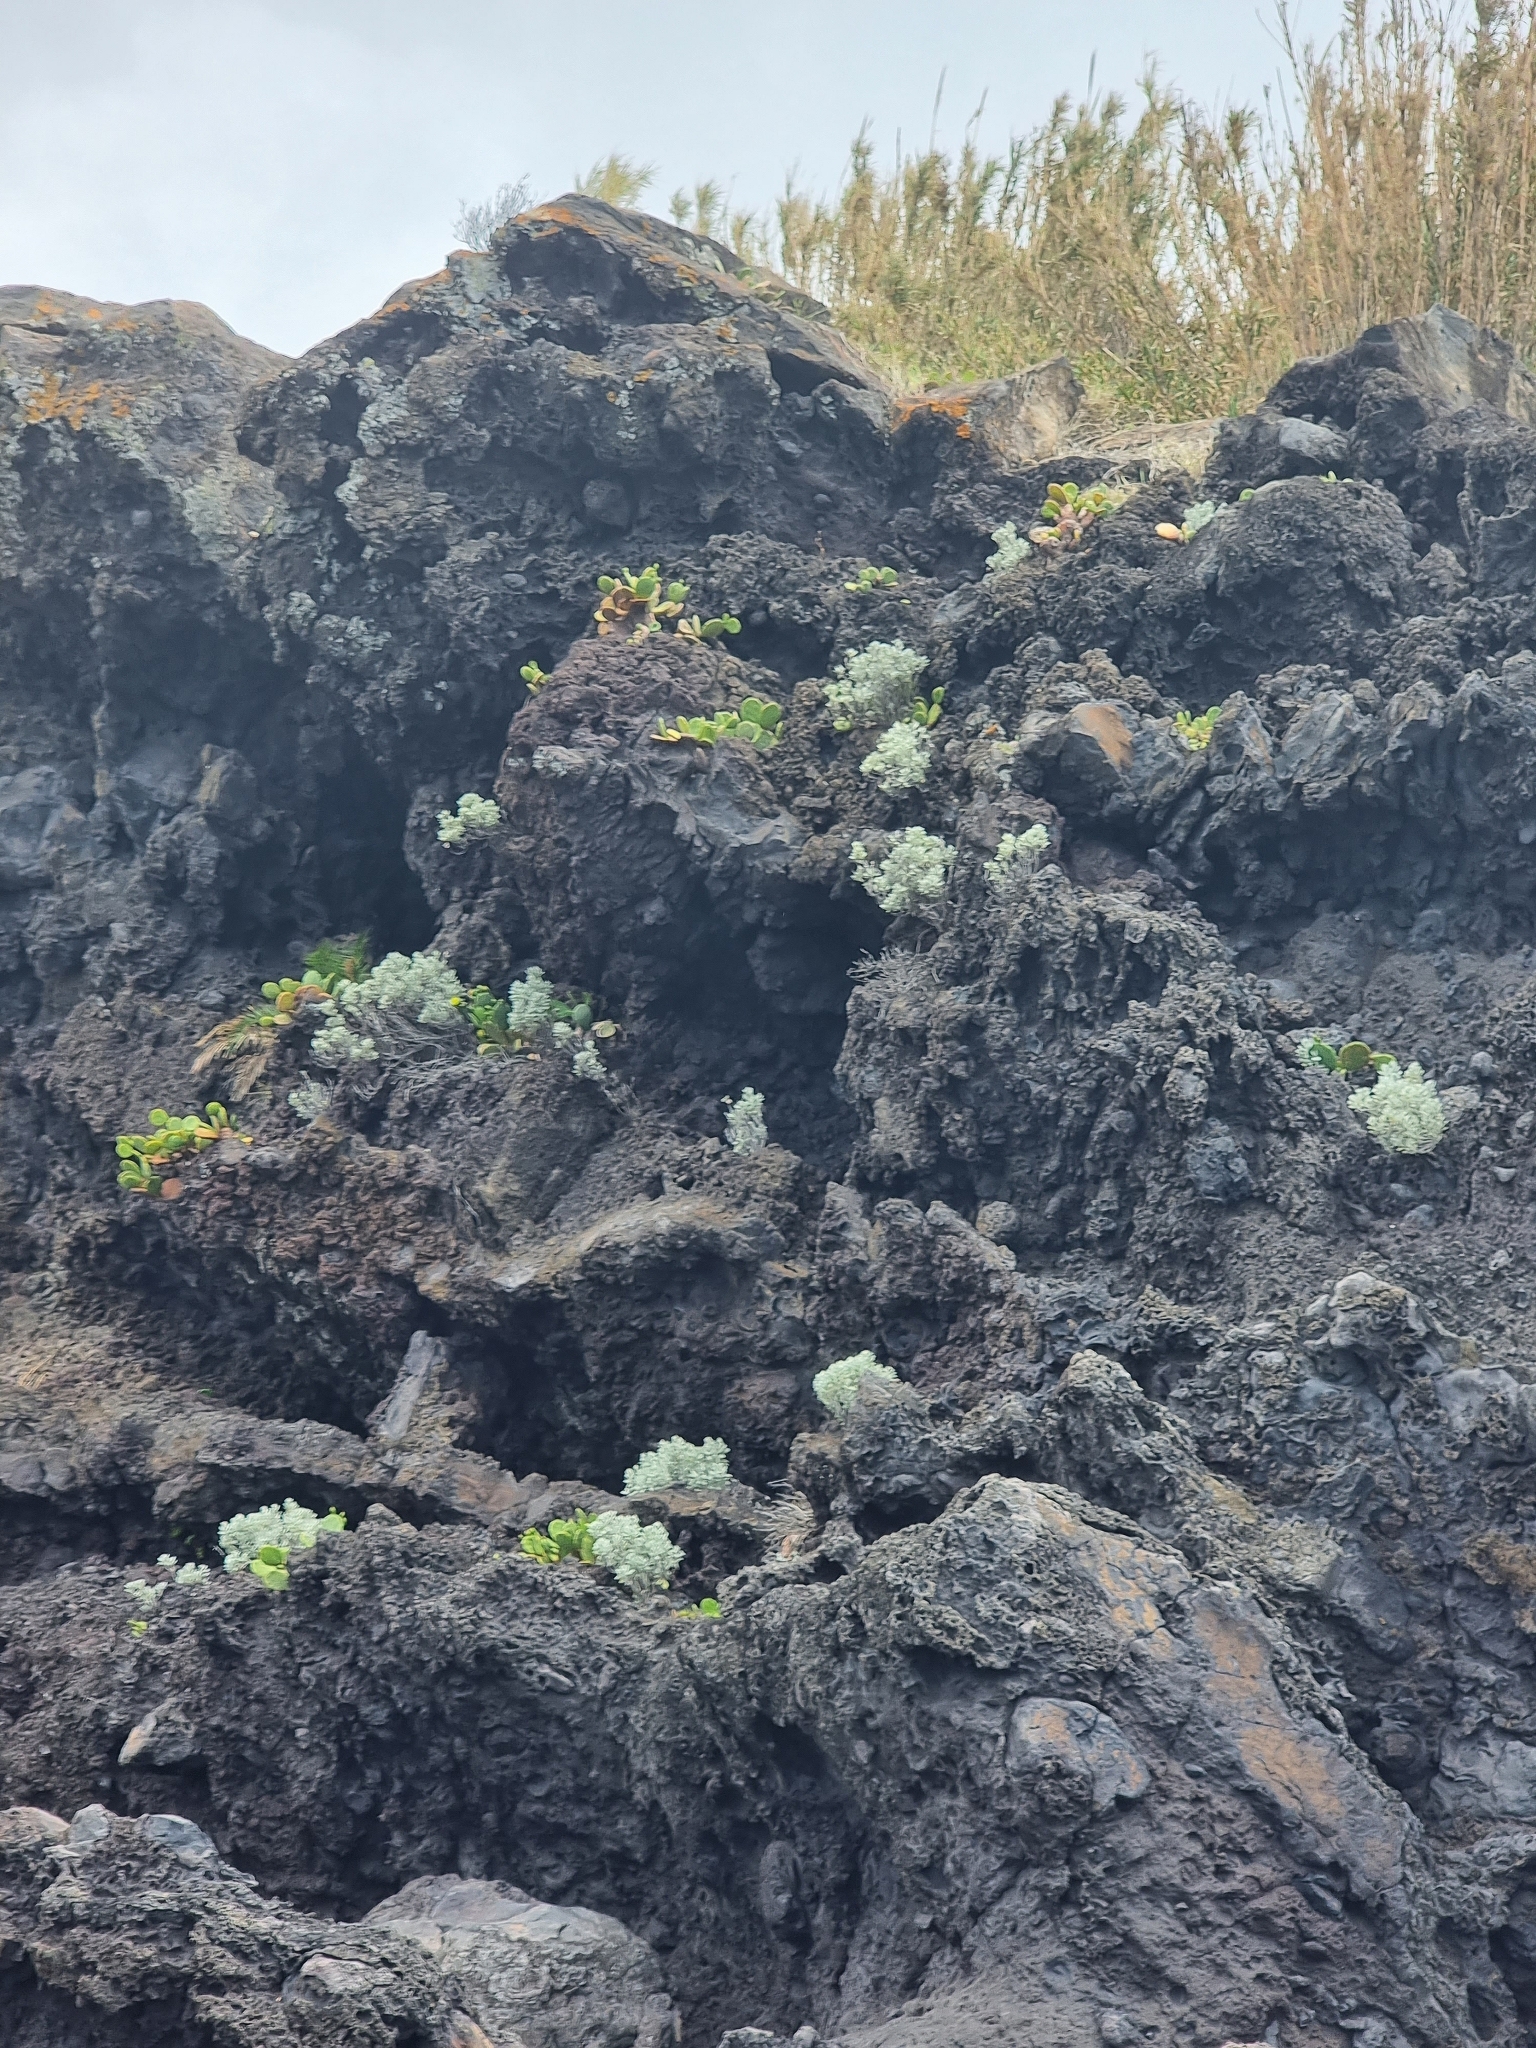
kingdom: Plantae
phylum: Tracheophyta
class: Magnoliopsida
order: Asterales
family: Asteraceae
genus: Helichrysum
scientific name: Helichrysum obconicum
